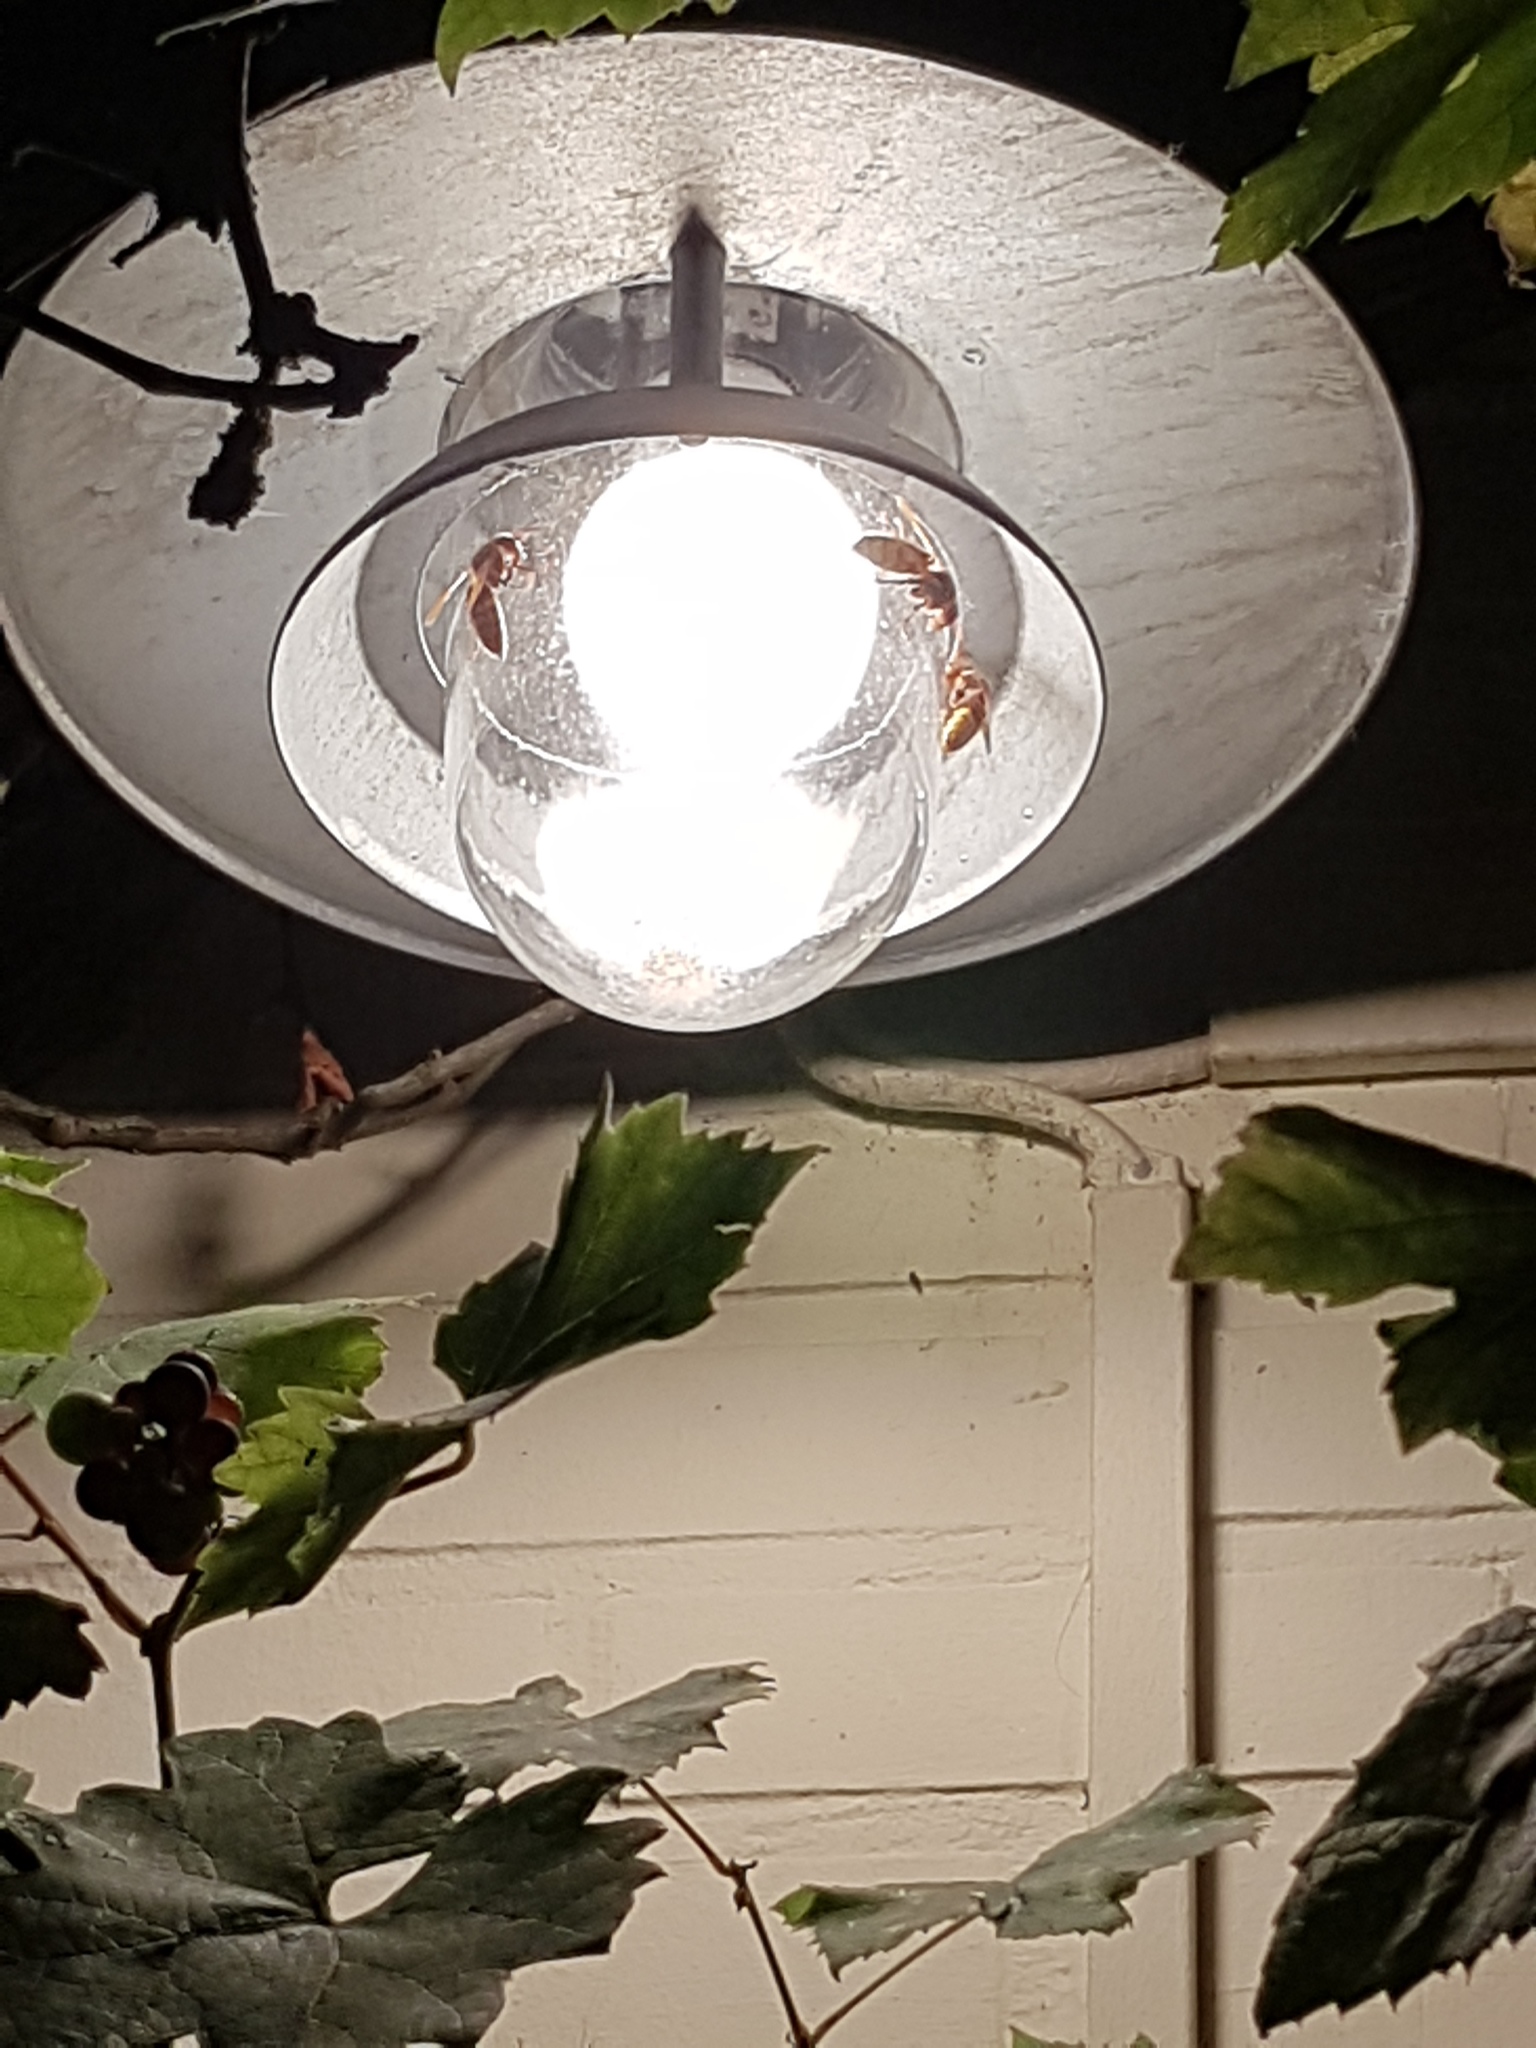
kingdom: Animalia
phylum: Arthropoda
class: Insecta
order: Hymenoptera
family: Vespidae
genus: Vespa
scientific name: Vespa crabro
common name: Hornet
